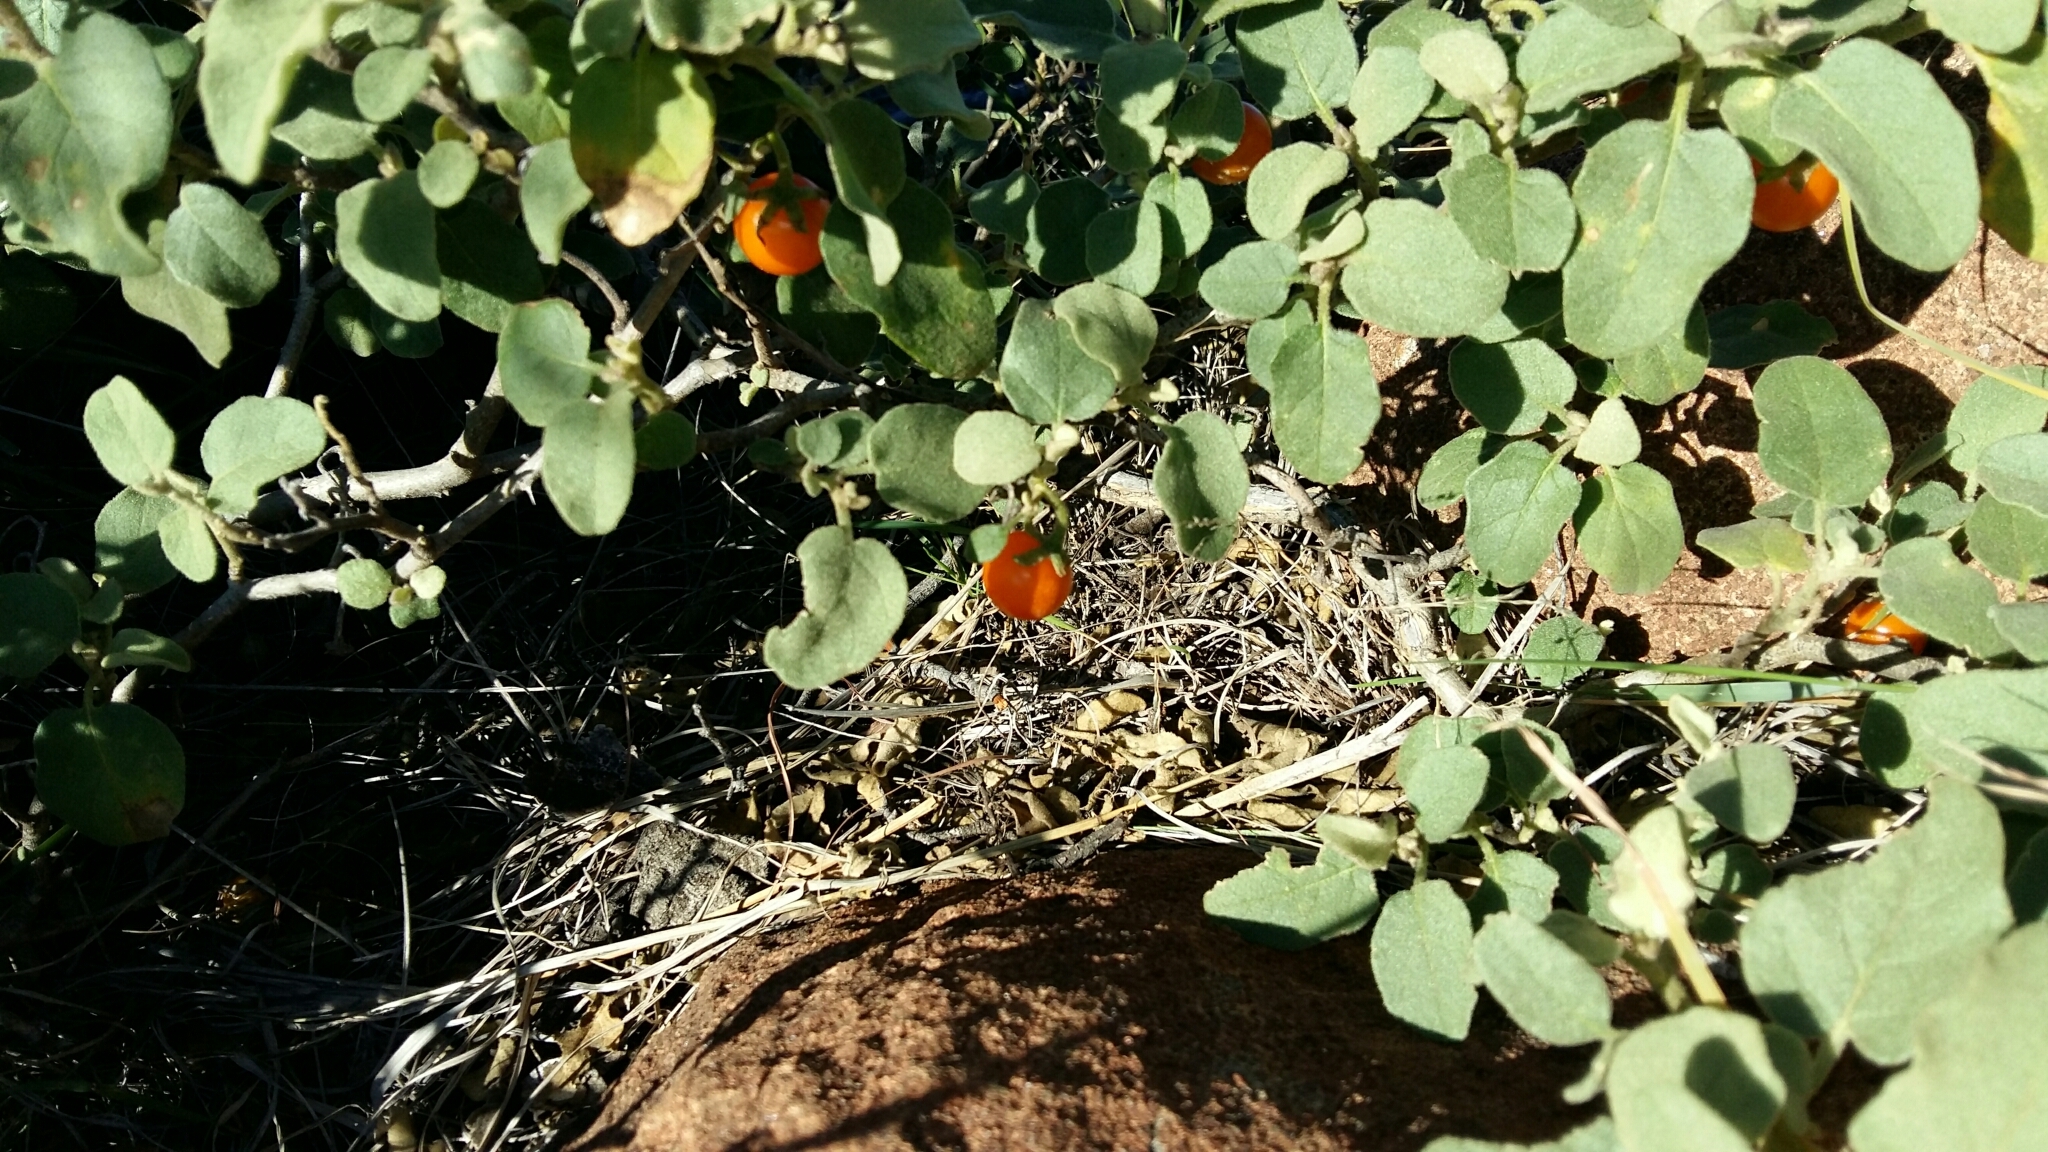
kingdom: Plantae
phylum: Tracheophyta
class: Magnoliopsida
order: Solanales
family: Solanaceae
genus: Solanum
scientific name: Solanum tomentosum
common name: Wild aubergine
